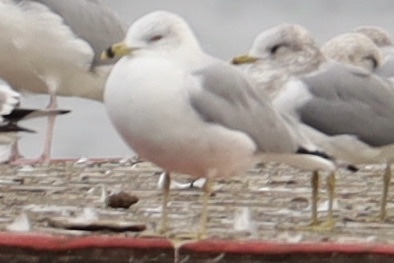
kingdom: Animalia
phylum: Chordata
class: Aves
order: Charadriiformes
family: Laridae
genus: Larus
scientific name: Larus delawarensis
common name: Ring-billed gull
